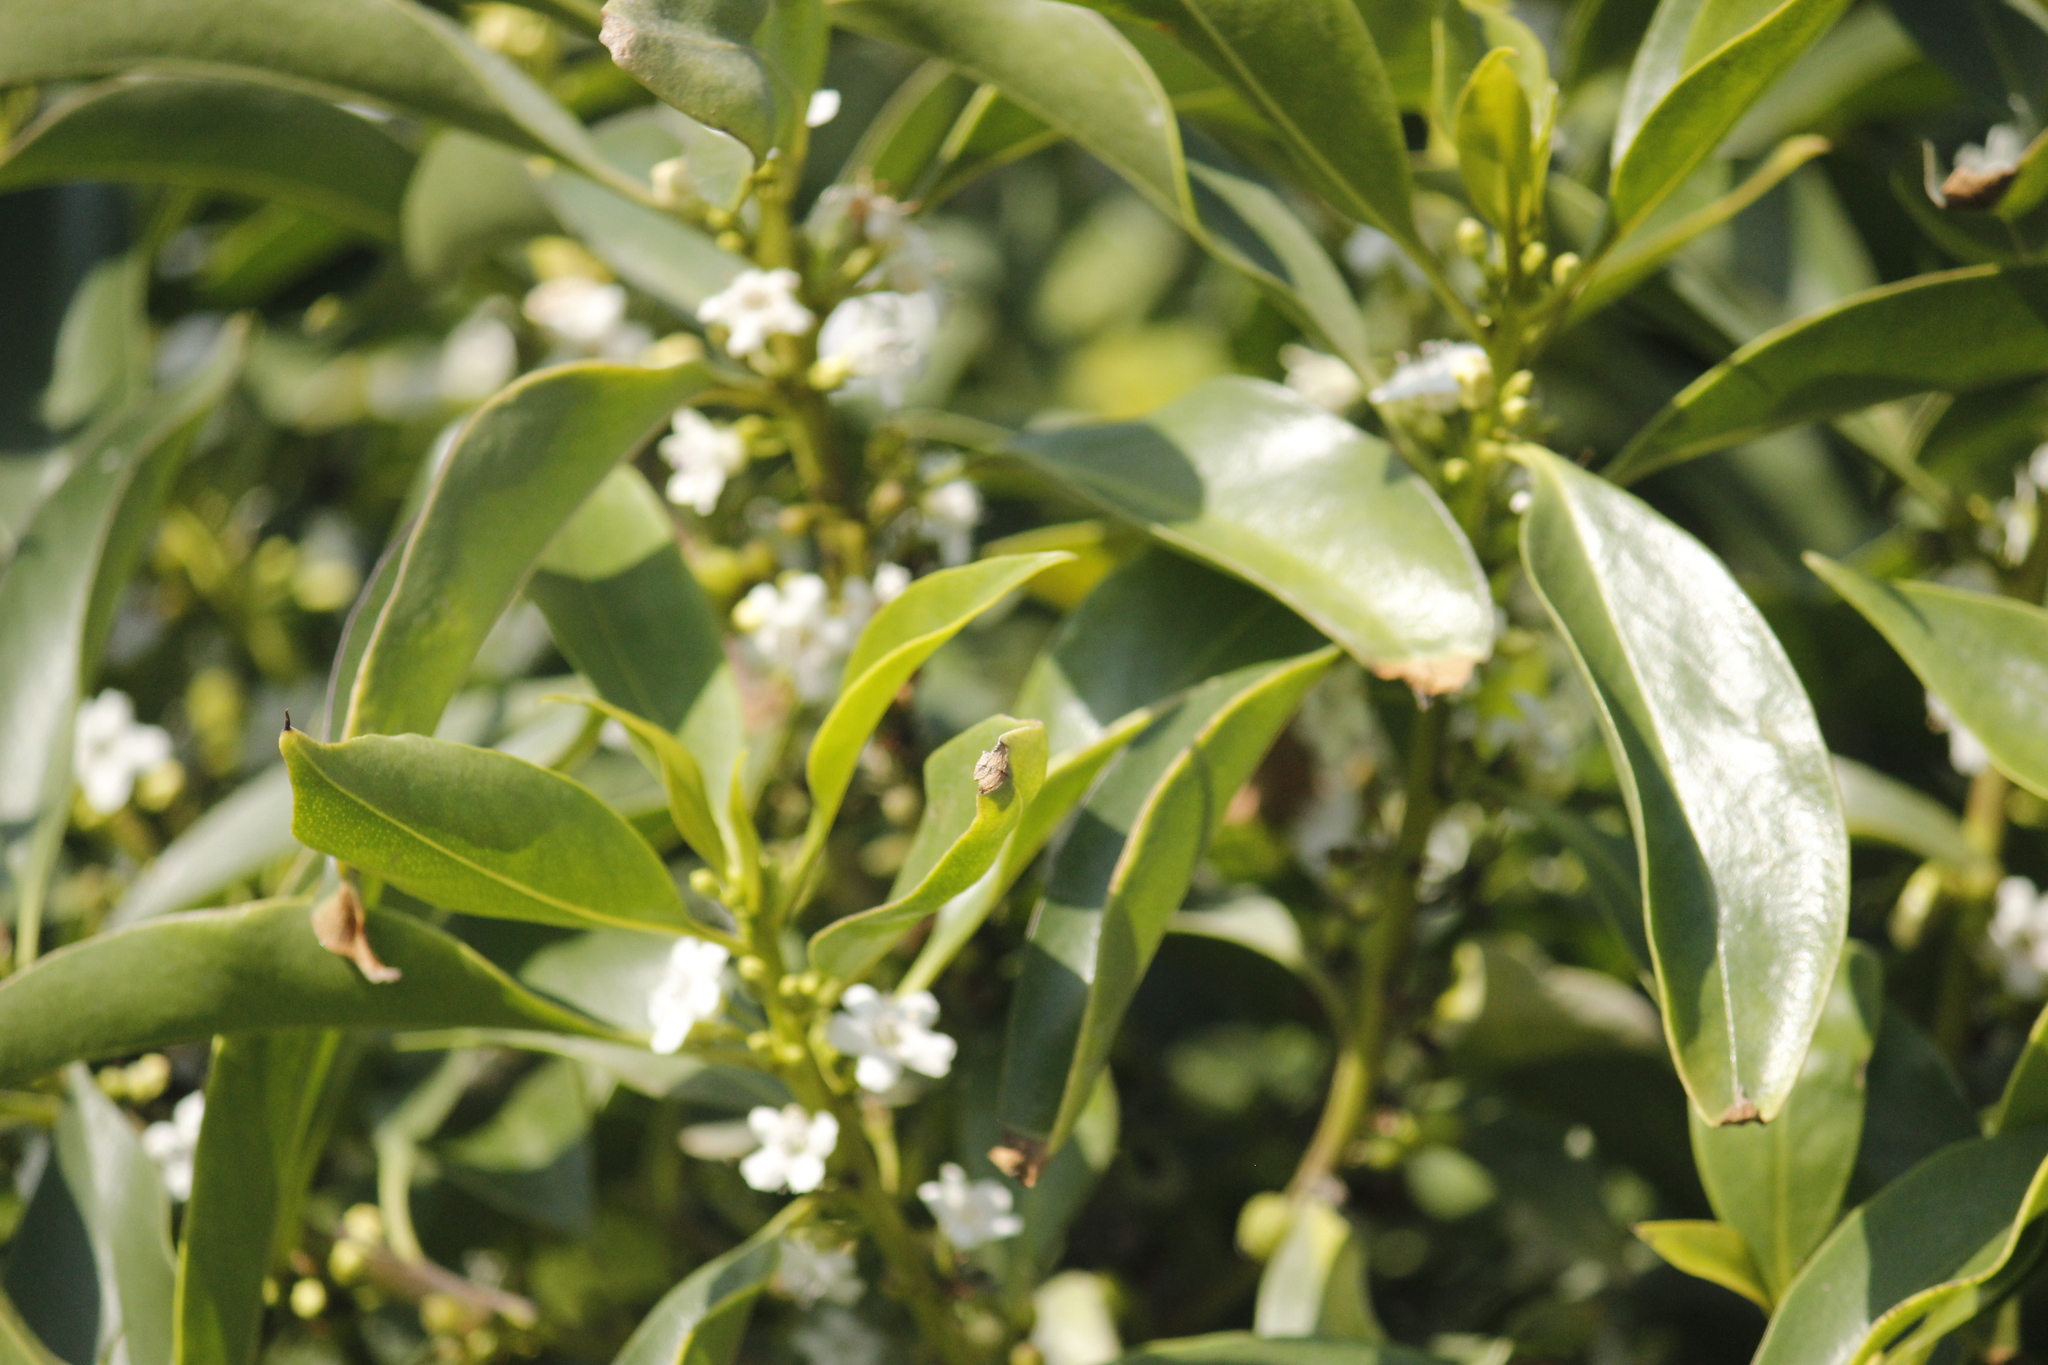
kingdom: Plantae
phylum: Tracheophyta
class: Magnoliopsida
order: Lamiales
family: Scrophulariaceae
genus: Myoporum
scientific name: Myoporum laetum
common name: Ngaio tree
